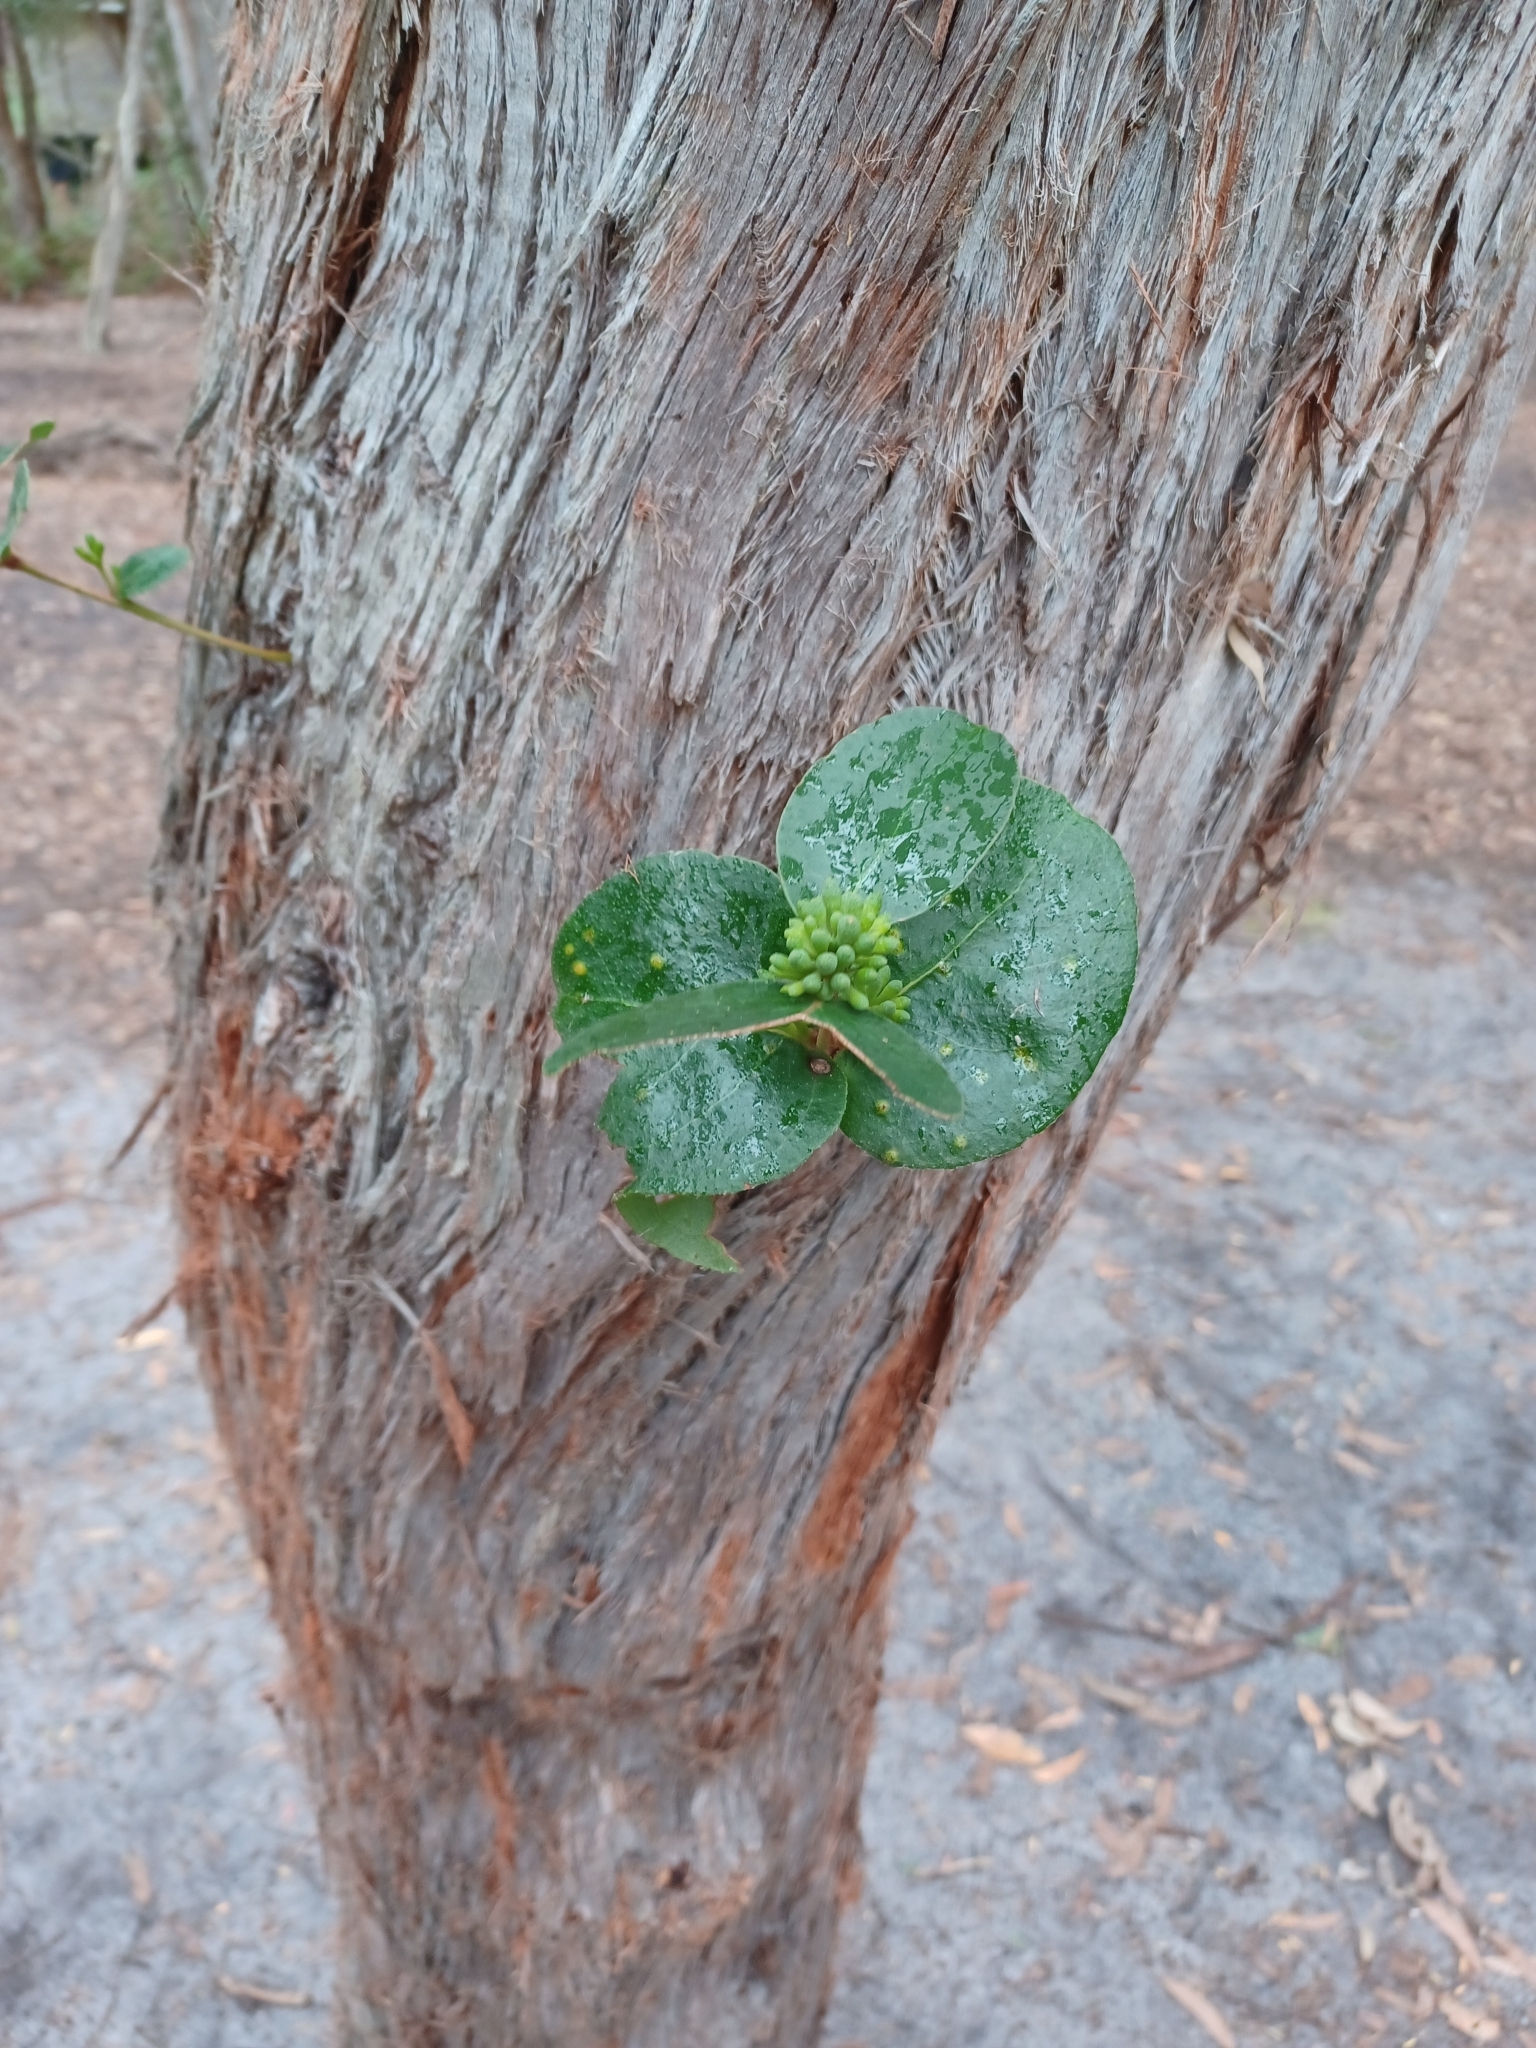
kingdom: Plantae
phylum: Tracheophyta
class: Magnoliopsida
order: Myrtales
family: Myrtaceae
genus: Eucalyptus
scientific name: Eucalyptus baxteri
